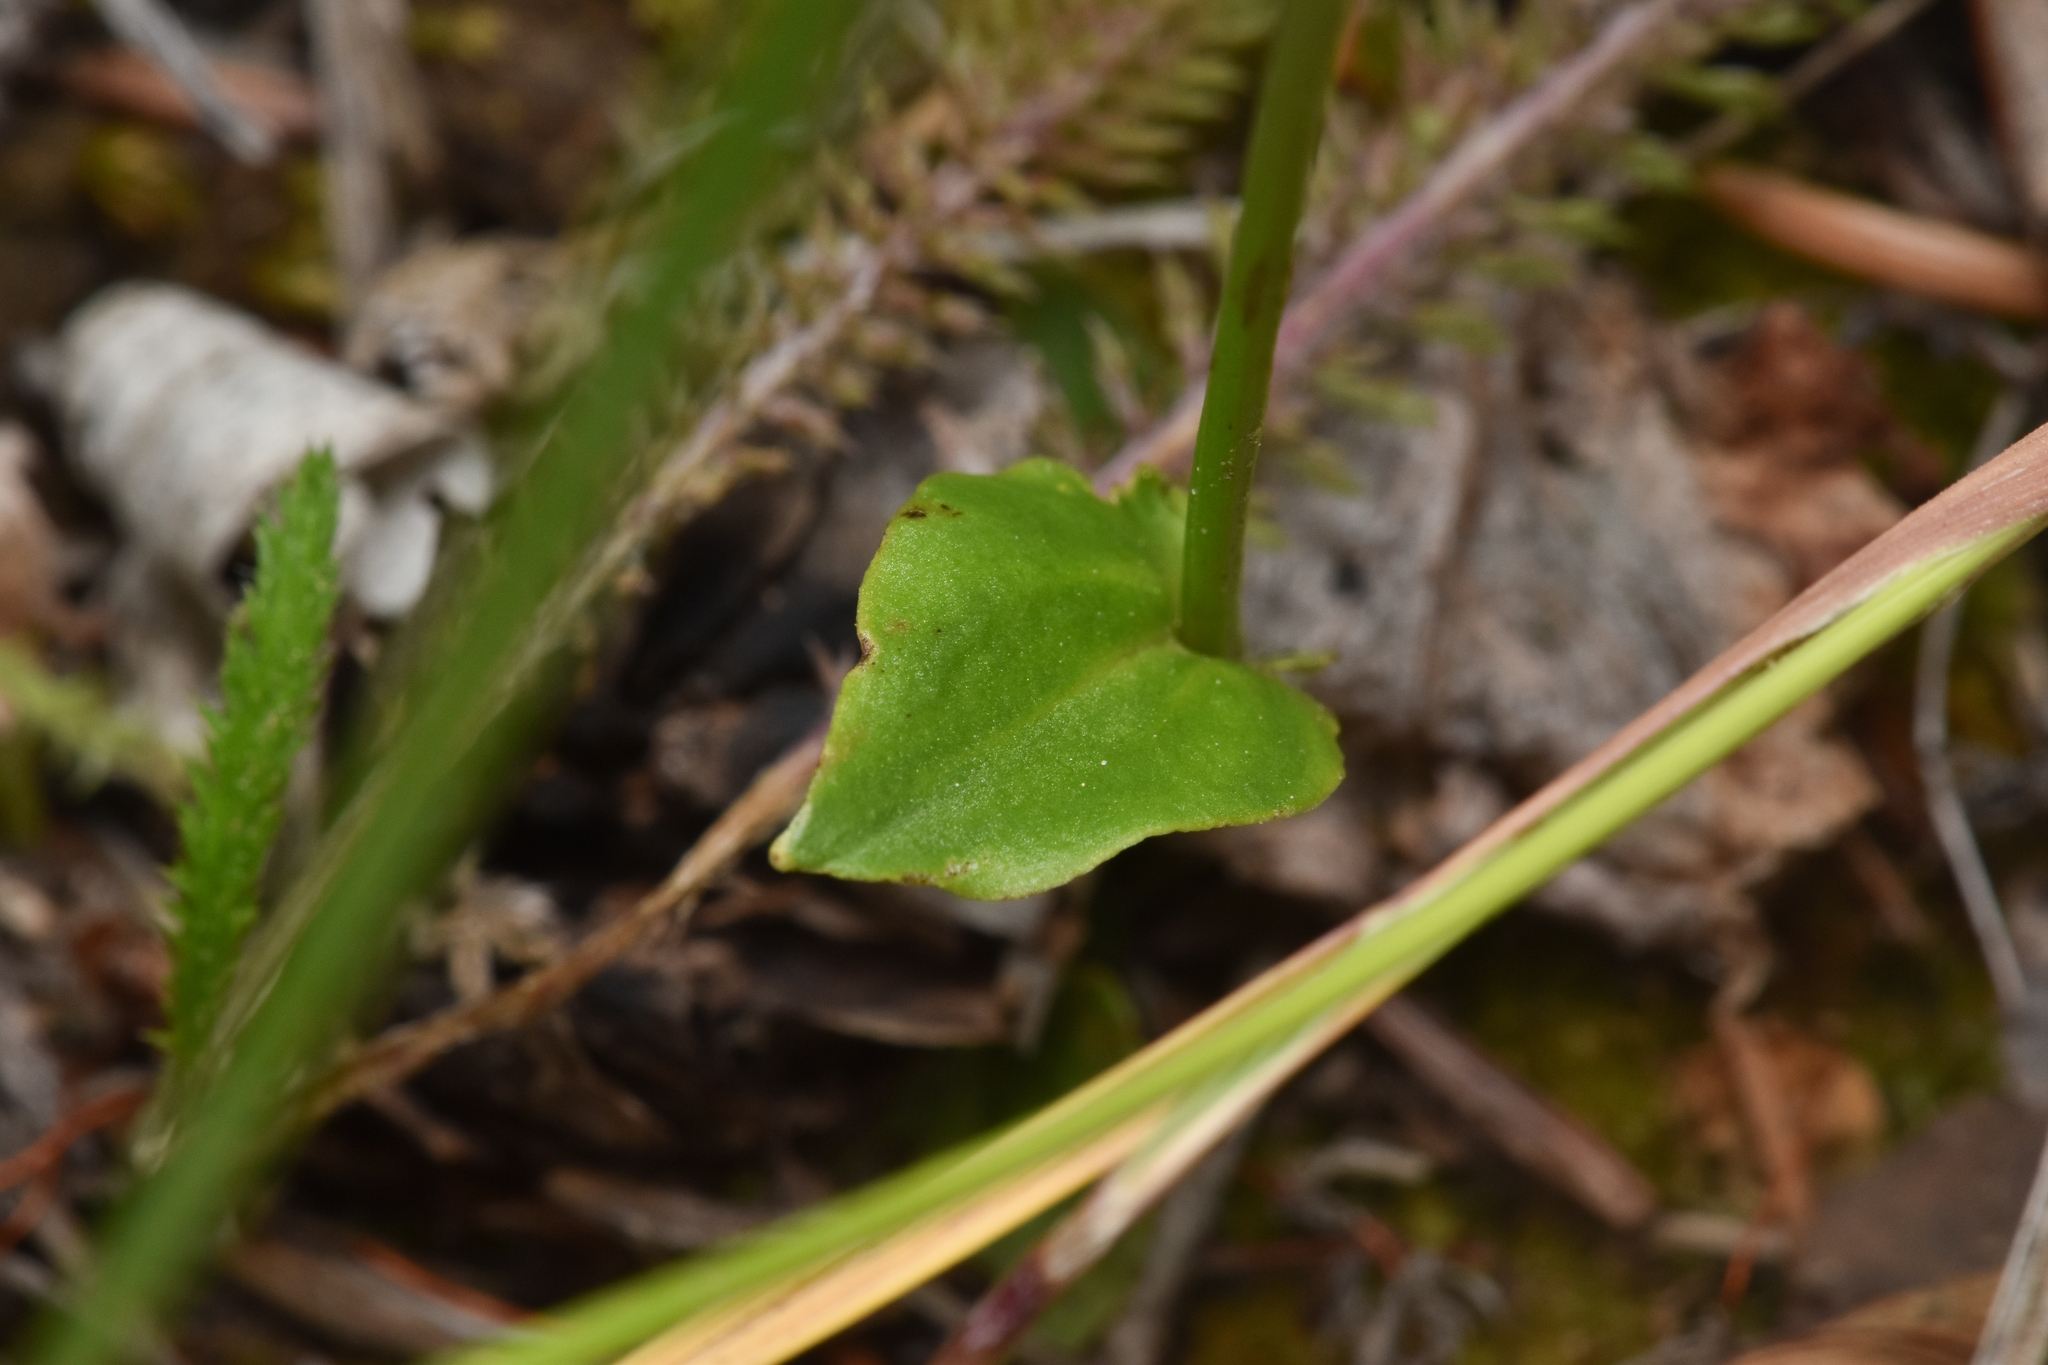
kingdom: Plantae
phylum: Tracheophyta
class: Magnoliopsida
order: Celastrales
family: Parnassiaceae
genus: Parnassia
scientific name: Parnassia palustris
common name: Grass-of-parnassus
